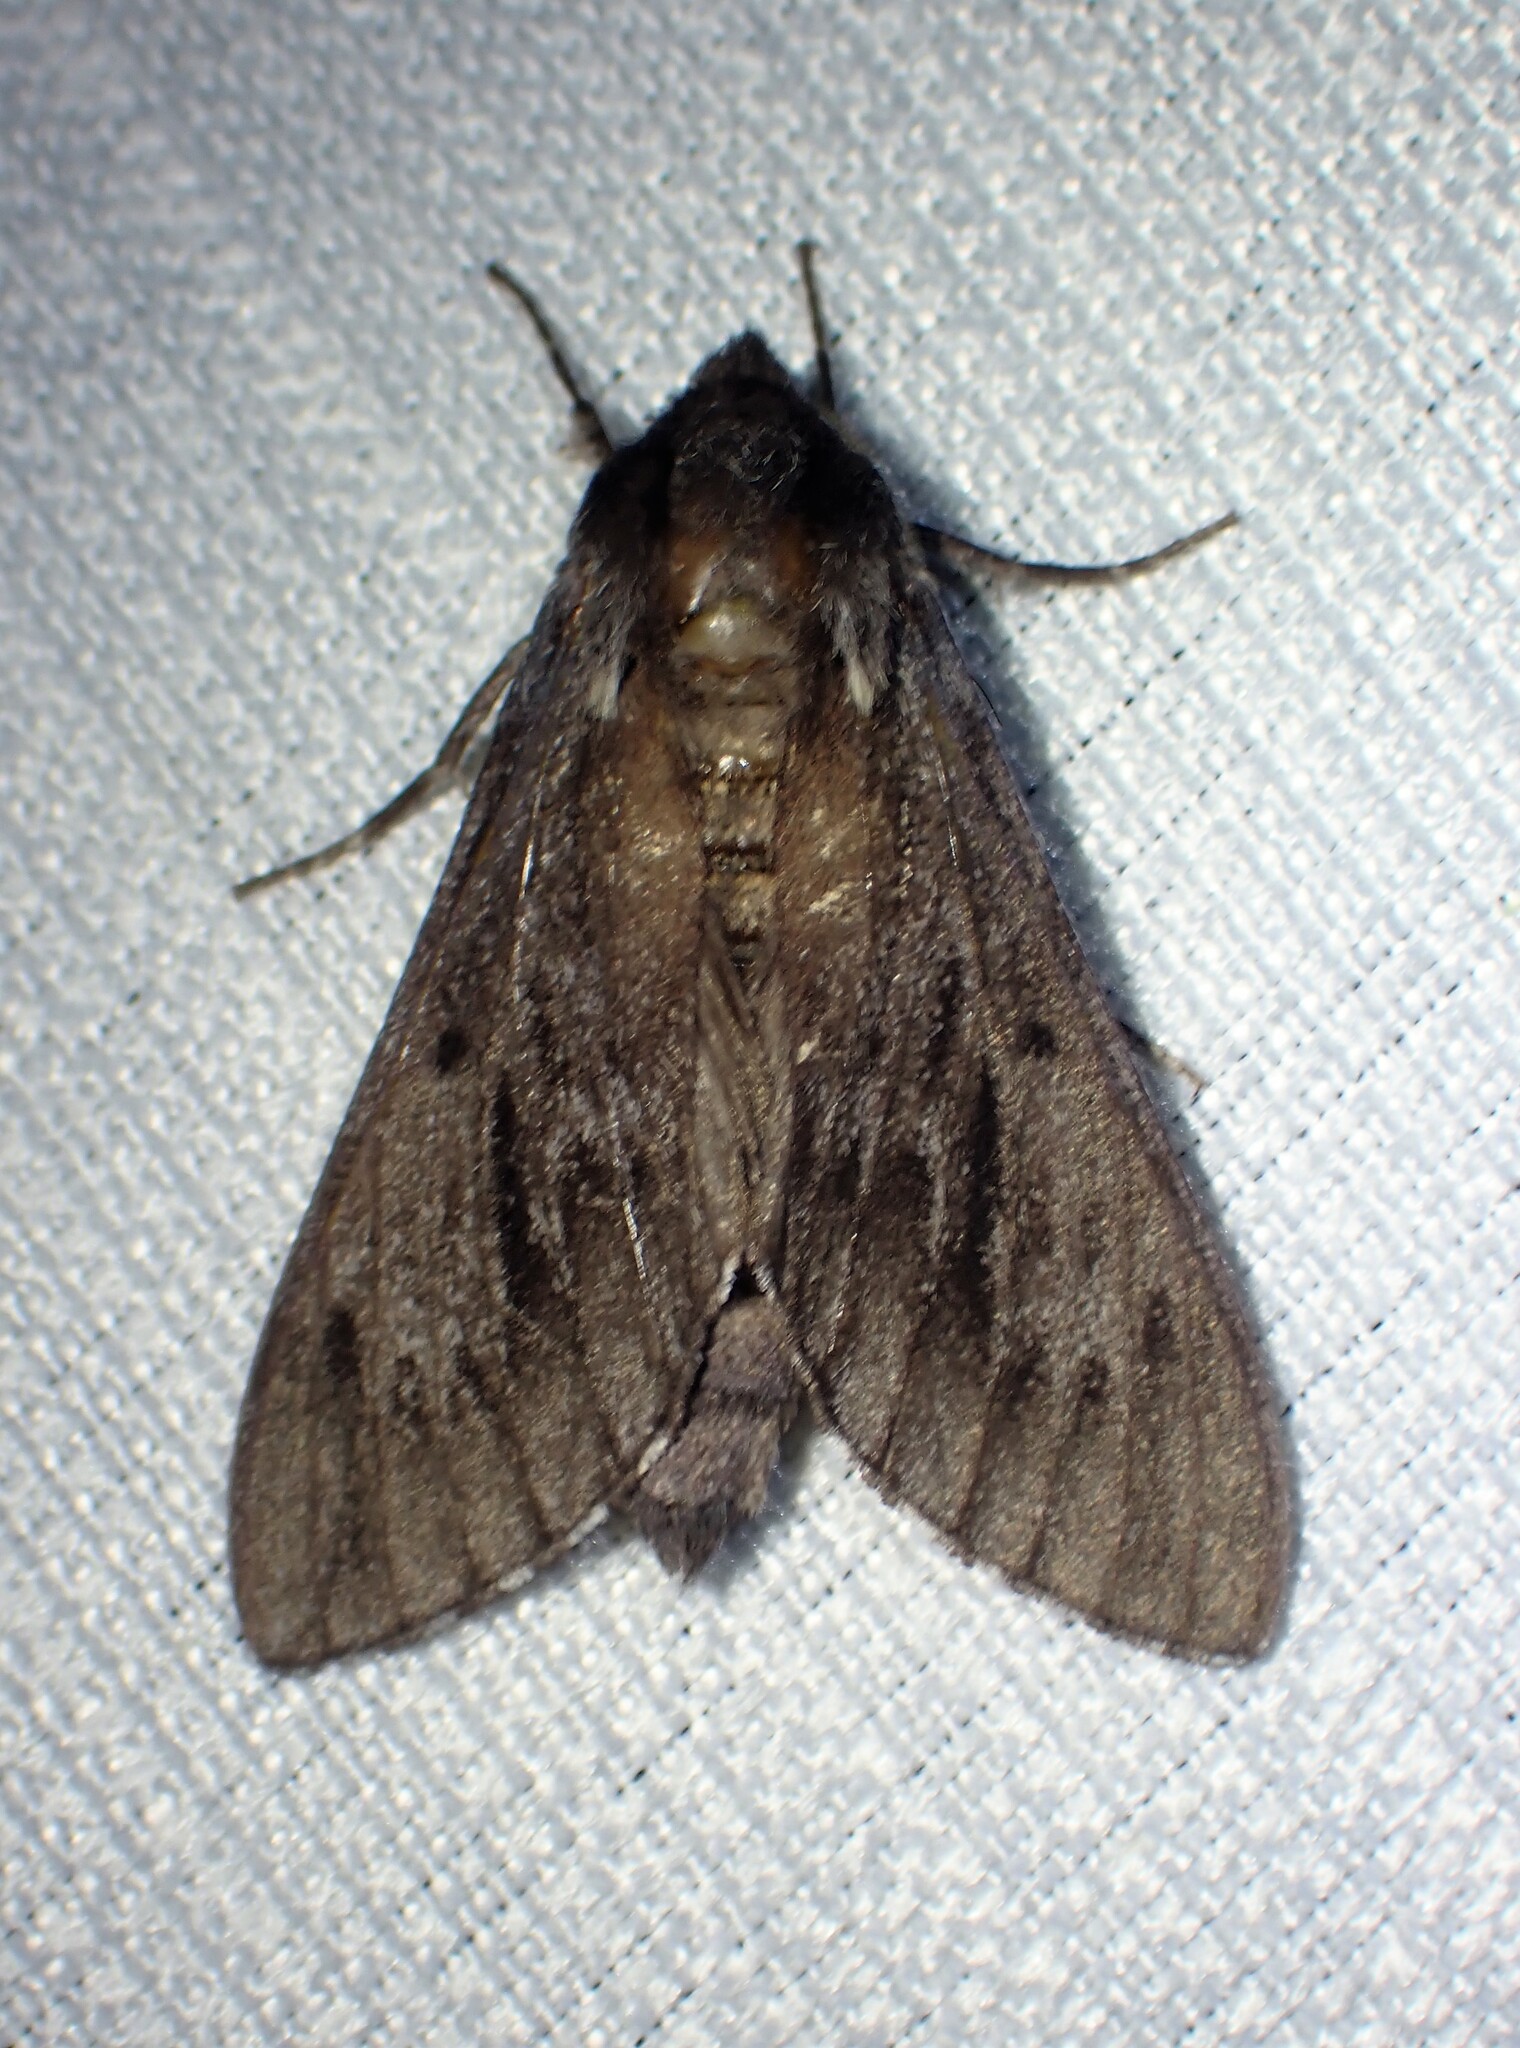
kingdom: Animalia
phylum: Arthropoda
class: Insecta
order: Lepidoptera
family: Sphingidae
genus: Lapara
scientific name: Lapara bombycoides
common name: Northern pine sphinx
